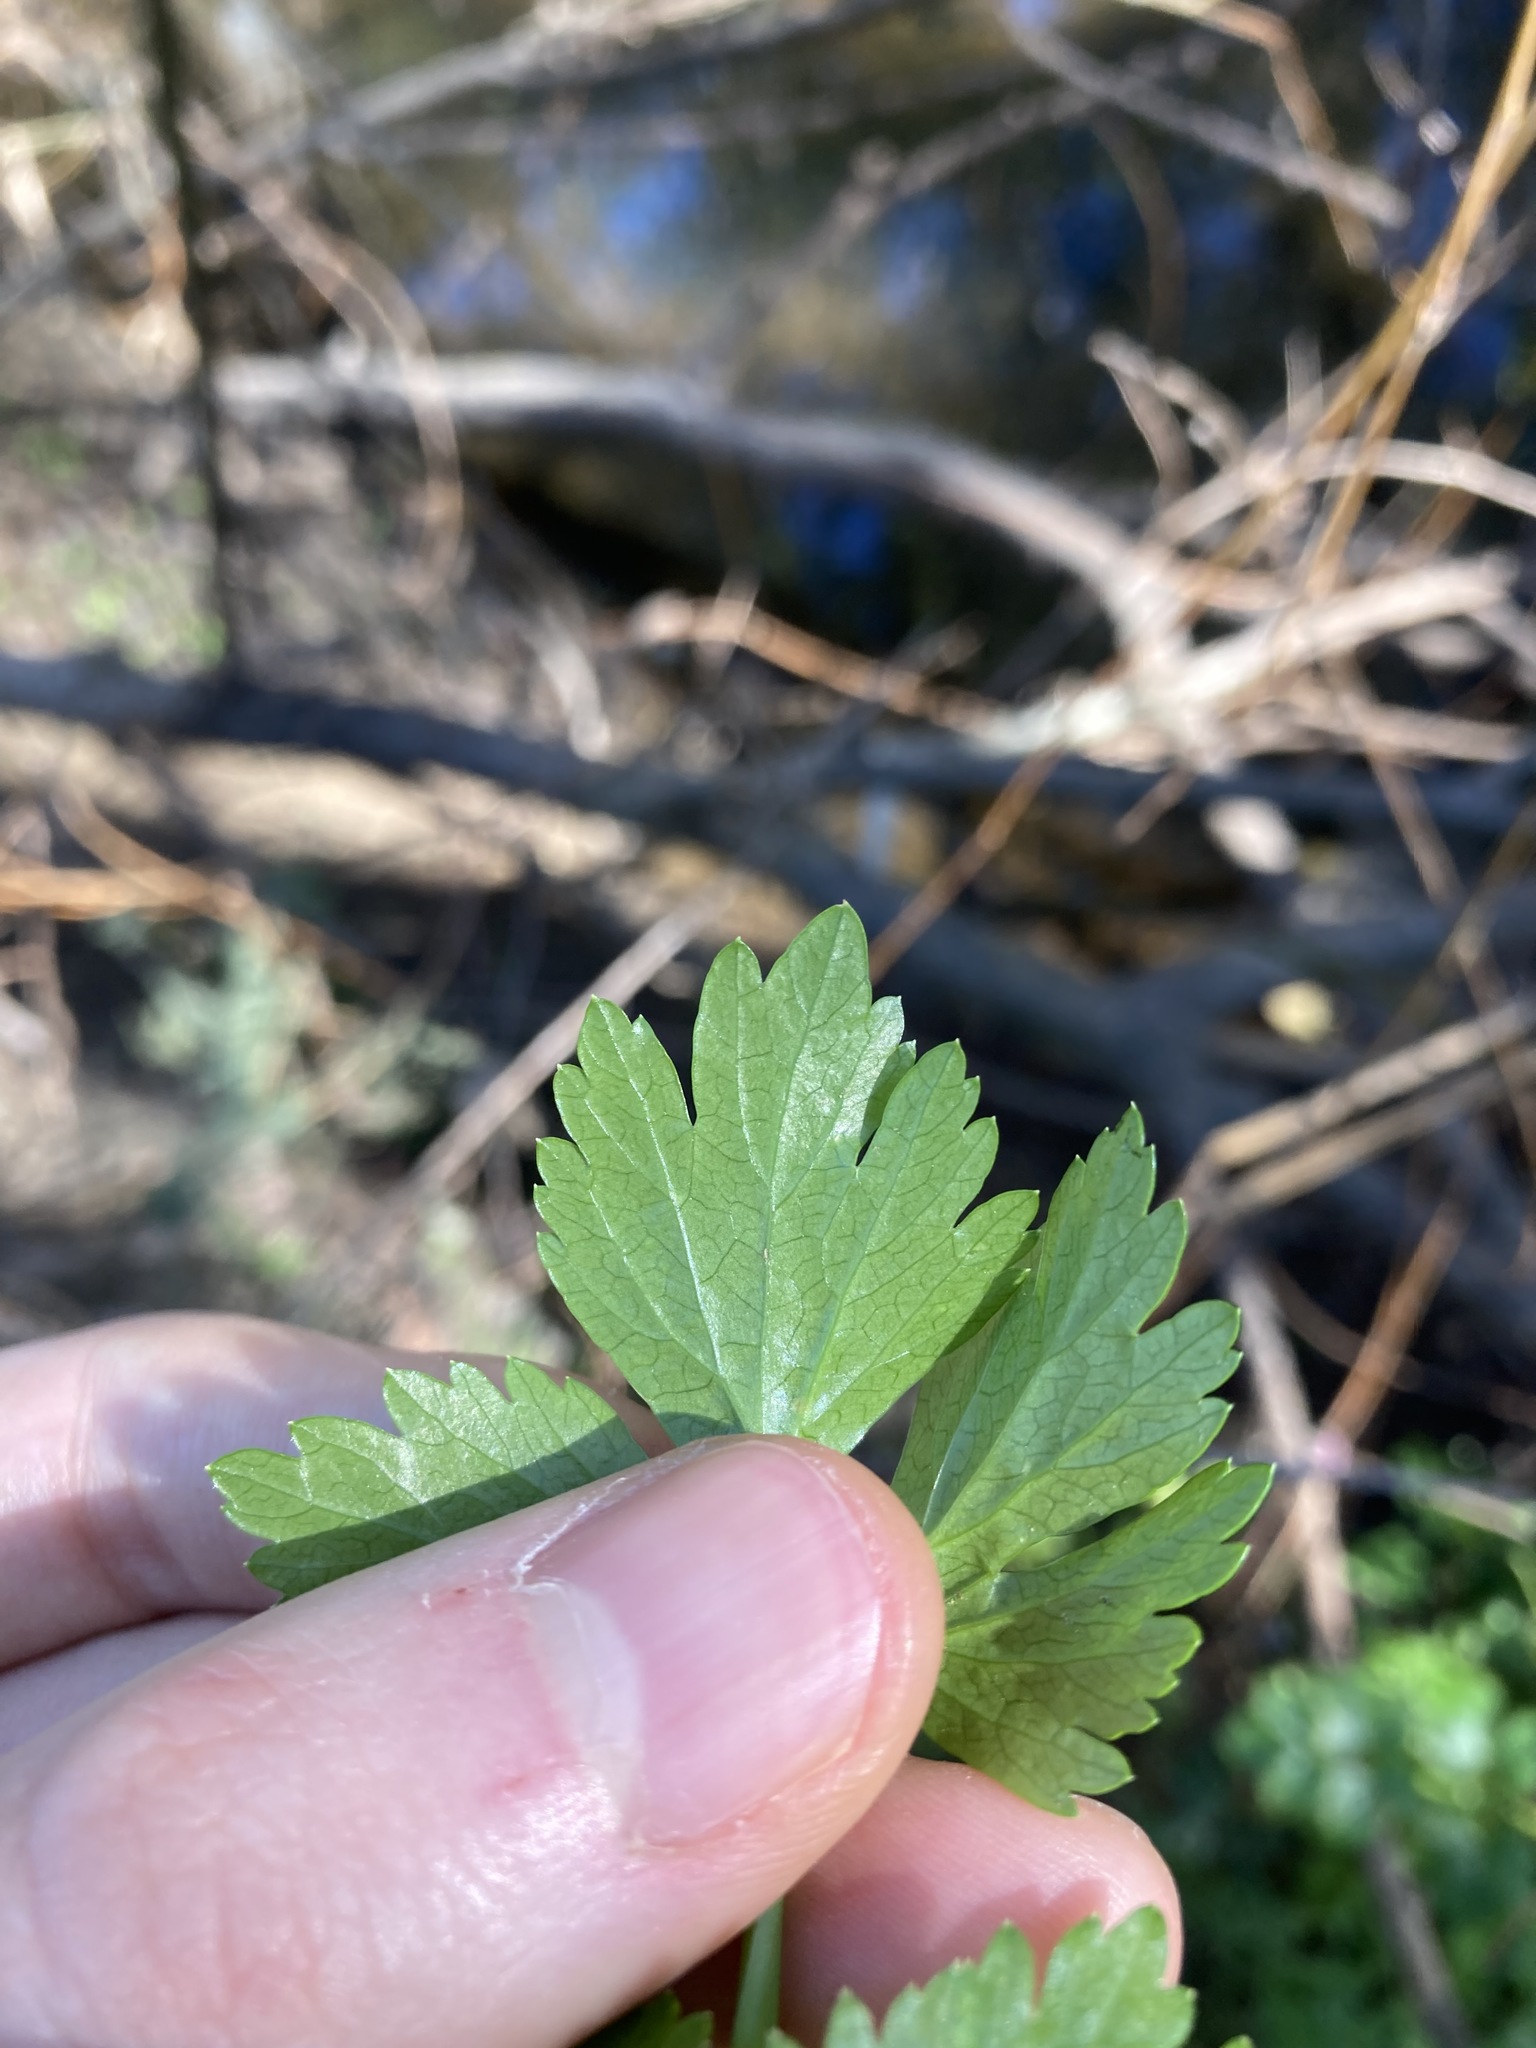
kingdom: Plantae
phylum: Tracheophyta
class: Magnoliopsida
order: Apiales
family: Apiaceae
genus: Apium
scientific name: Apium graveolens
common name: Wild celery
